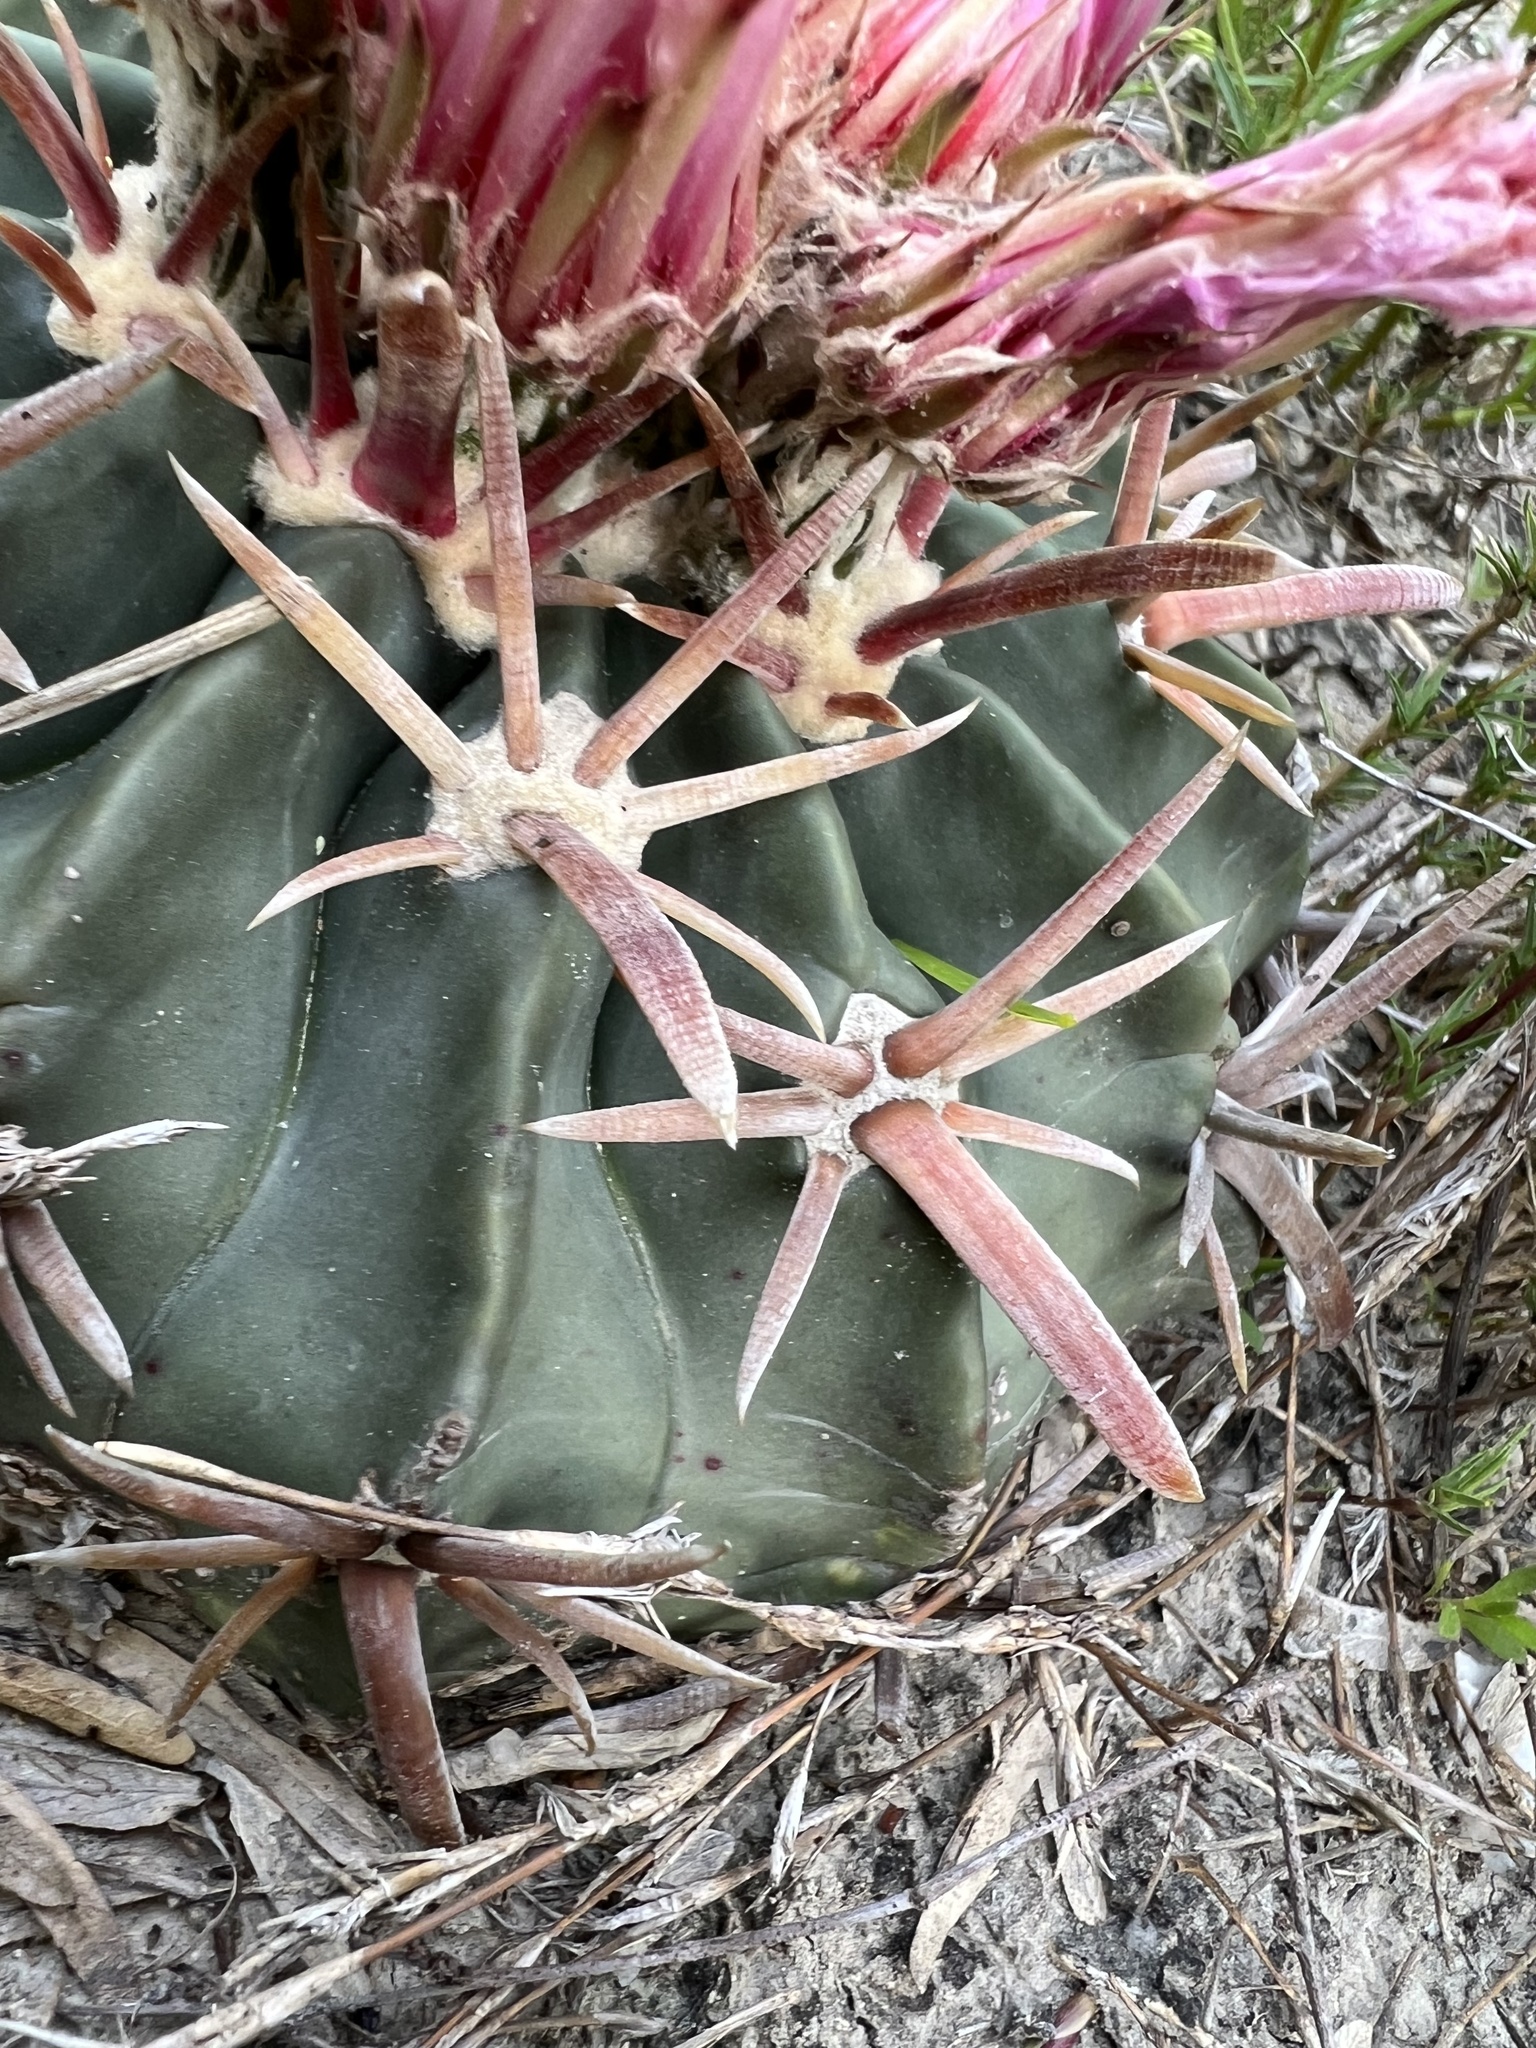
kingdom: Plantae
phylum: Tracheophyta
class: Magnoliopsida
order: Caryophyllales
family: Cactaceae
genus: Echinocactus
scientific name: Echinocactus texensis
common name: Devil's pincushion
